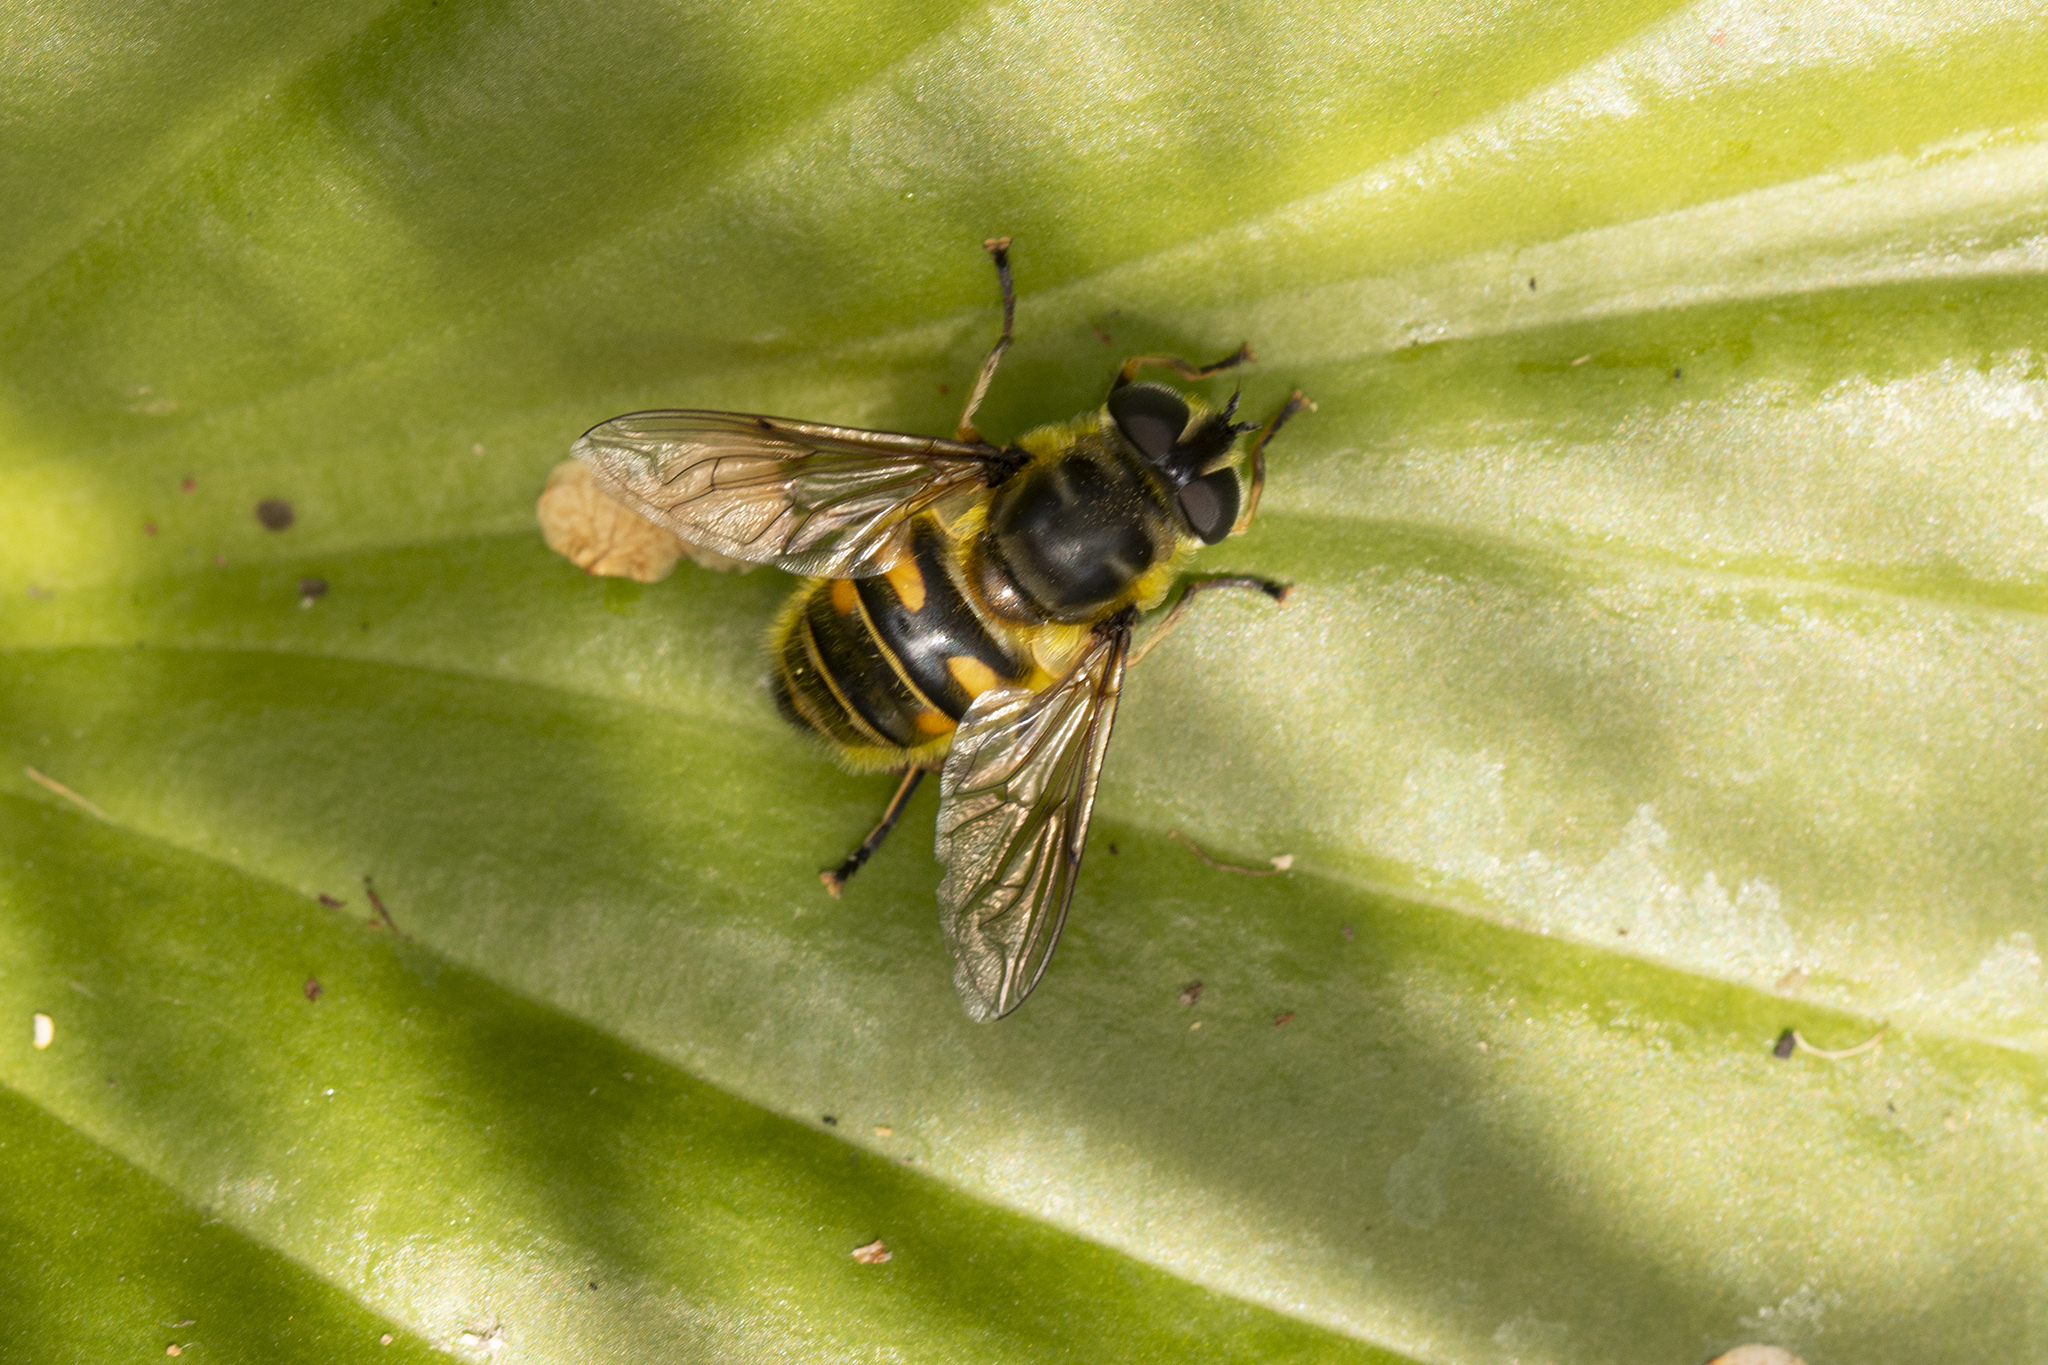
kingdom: Animalia
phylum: Arthropoda
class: Insecta
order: Diptera
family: Syrphidae
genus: Myathropa
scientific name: Myathropa florea
